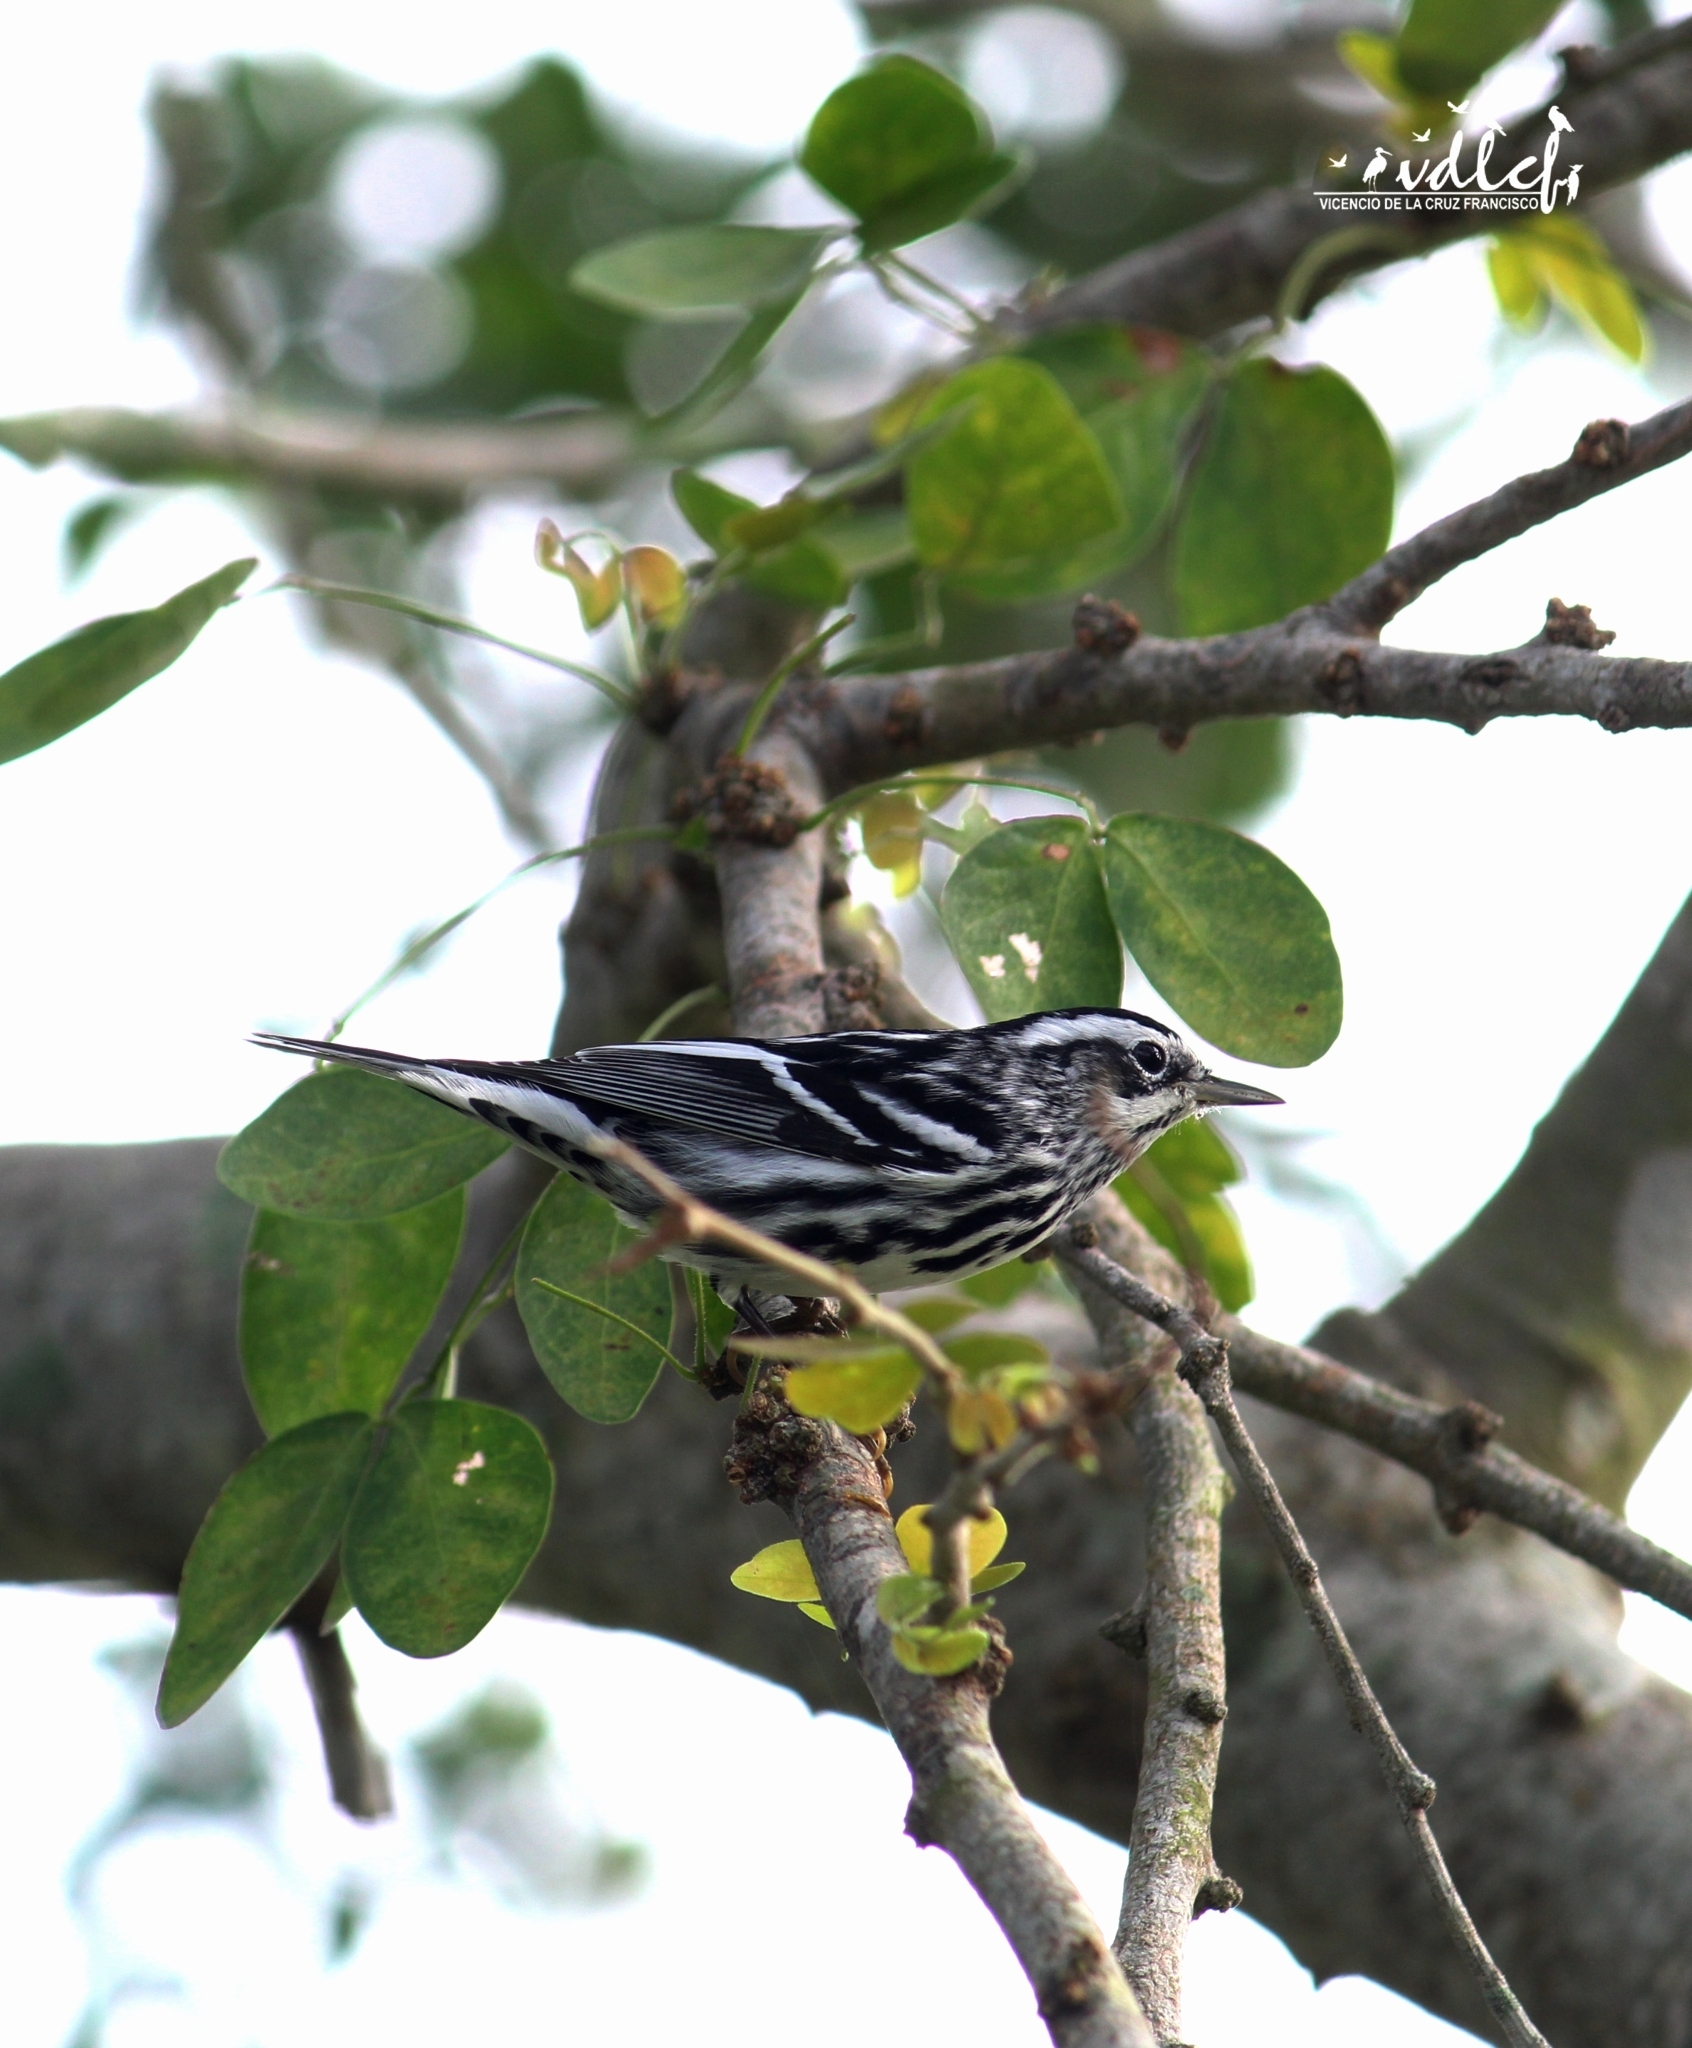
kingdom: Animalia
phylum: Chordata
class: Aves
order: Passeriformes
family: Parulidae
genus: Mniotilta
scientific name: Mniotilta varia
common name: Black-and-white warbler
